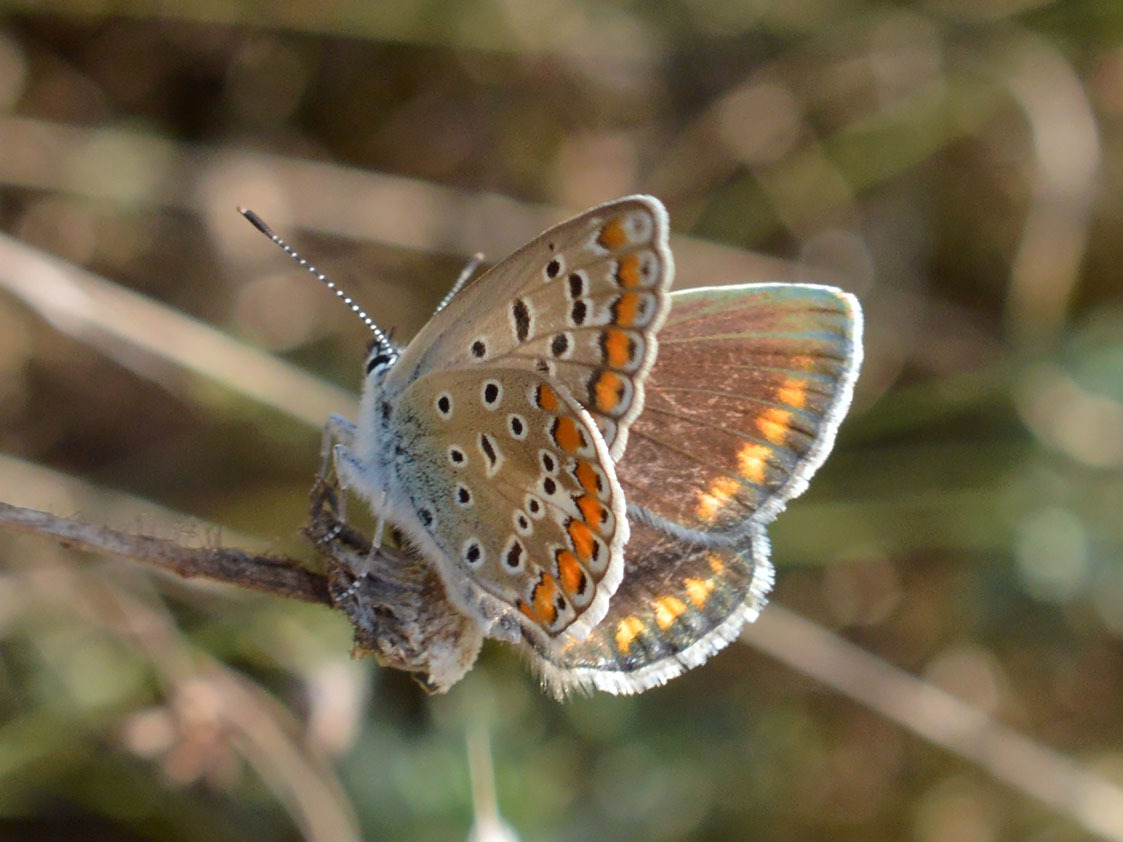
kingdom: Animalia
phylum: Arthropoda
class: Insecta
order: Lepidoptera
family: Lycaenidae
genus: Polyommatus
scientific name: Polyommatus icarus
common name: Common blue
